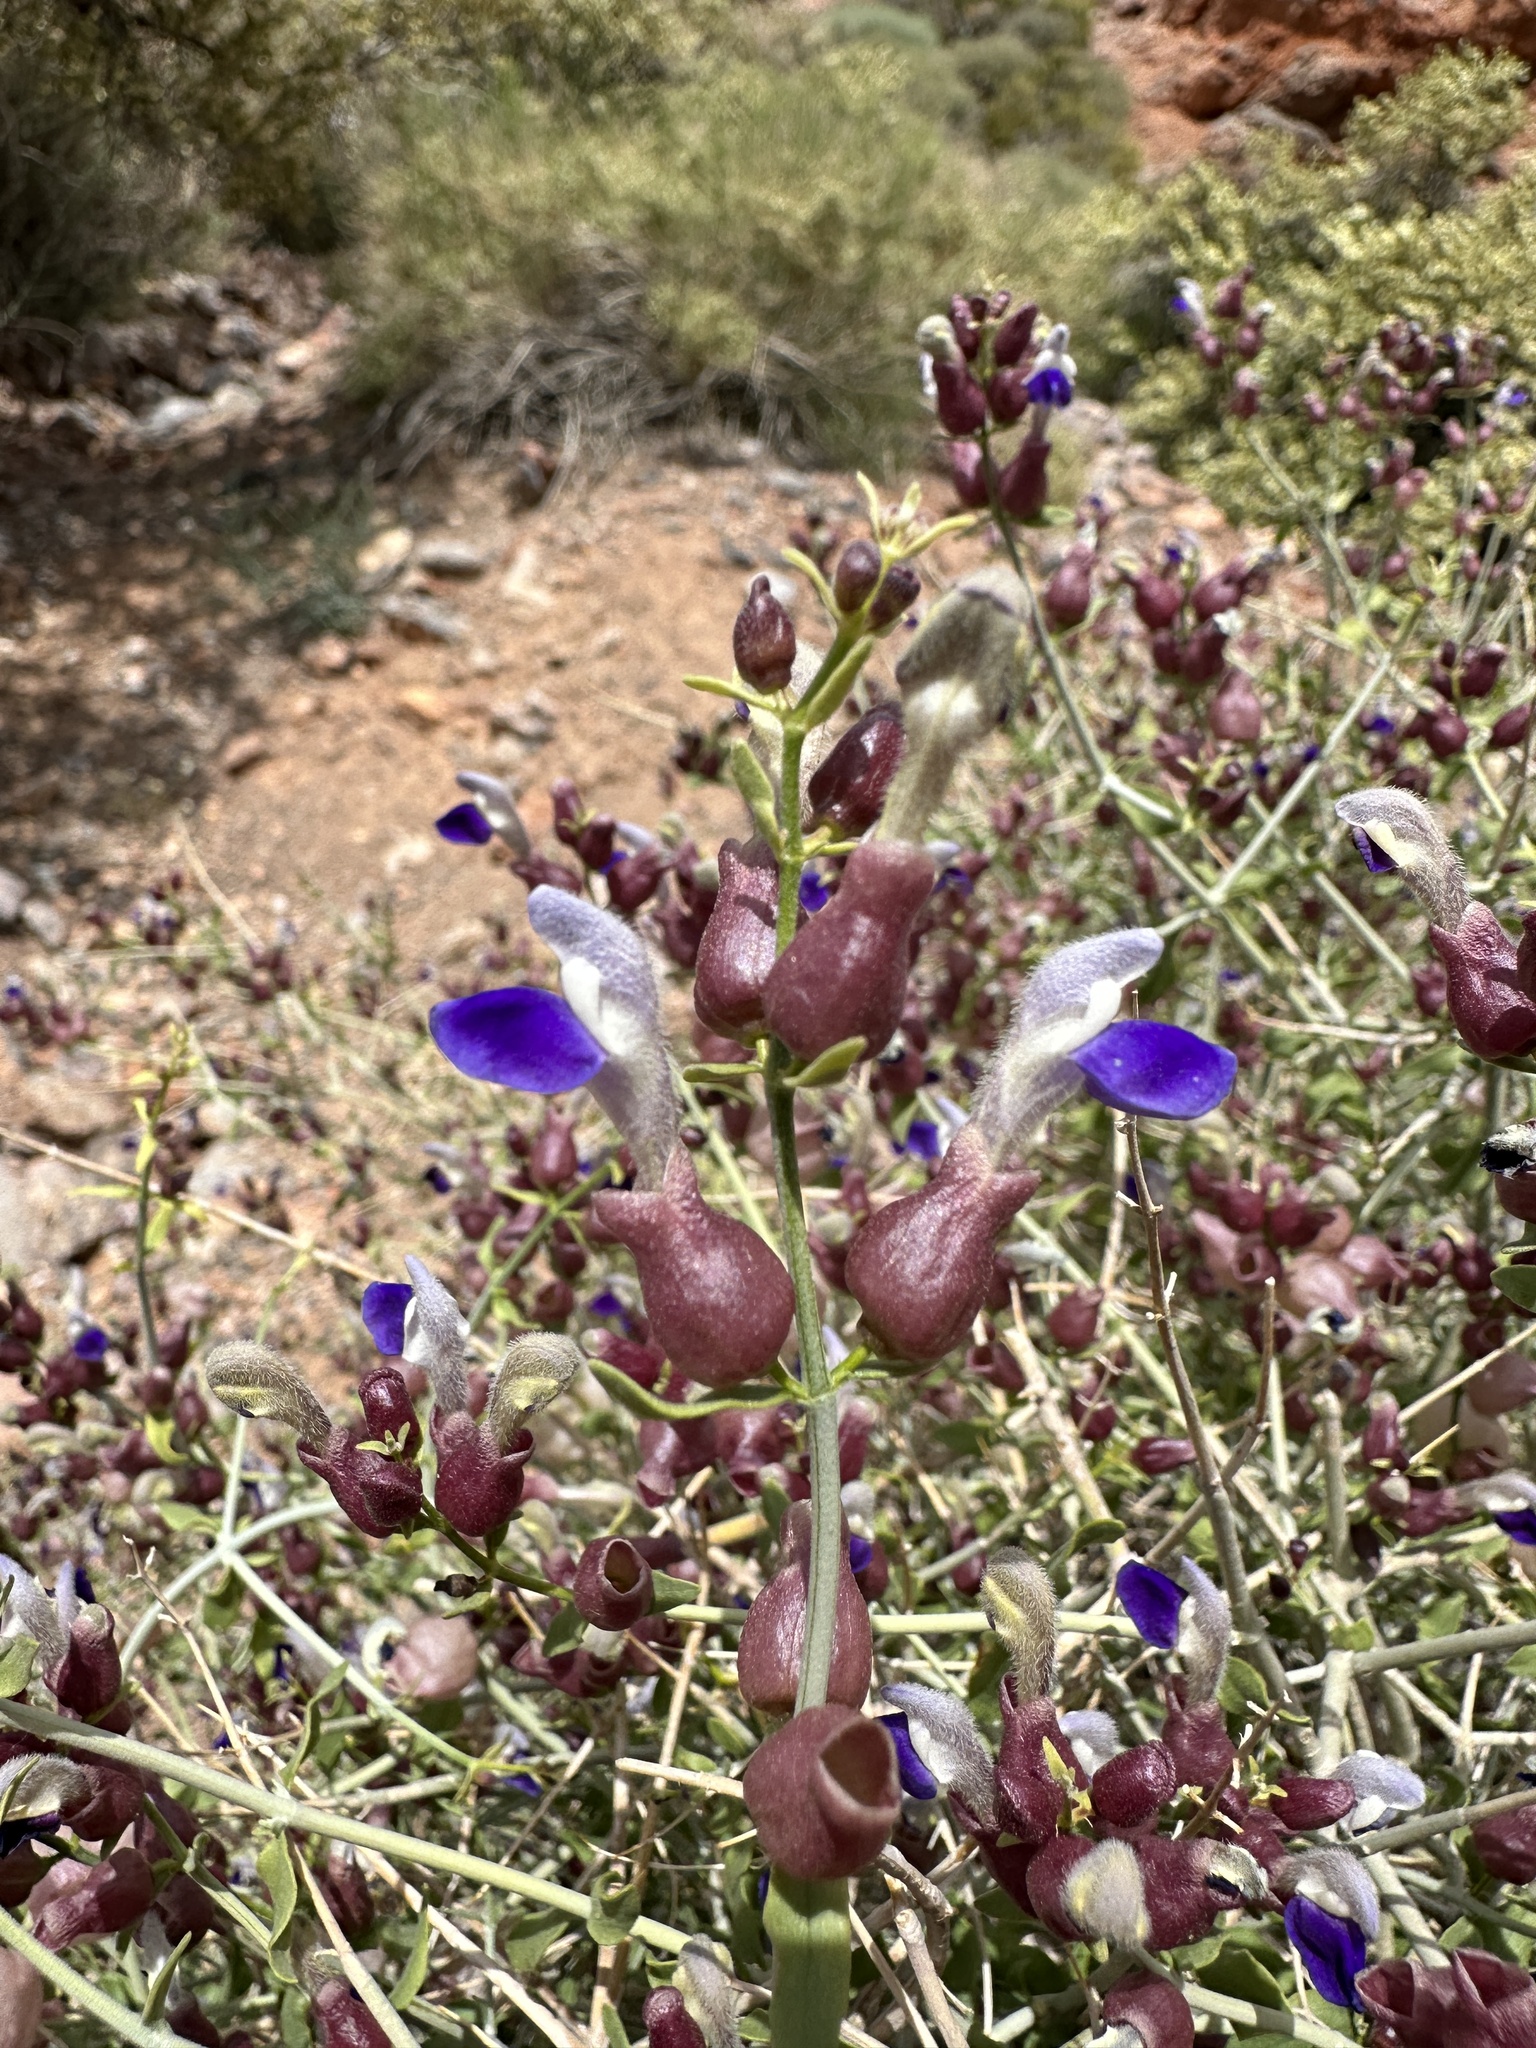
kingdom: Plantae
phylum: Tracheophyta
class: Magnoliopsida
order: Lamiales
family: Lamiaceae
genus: Scutellaria
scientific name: Scutellaria mexicana
